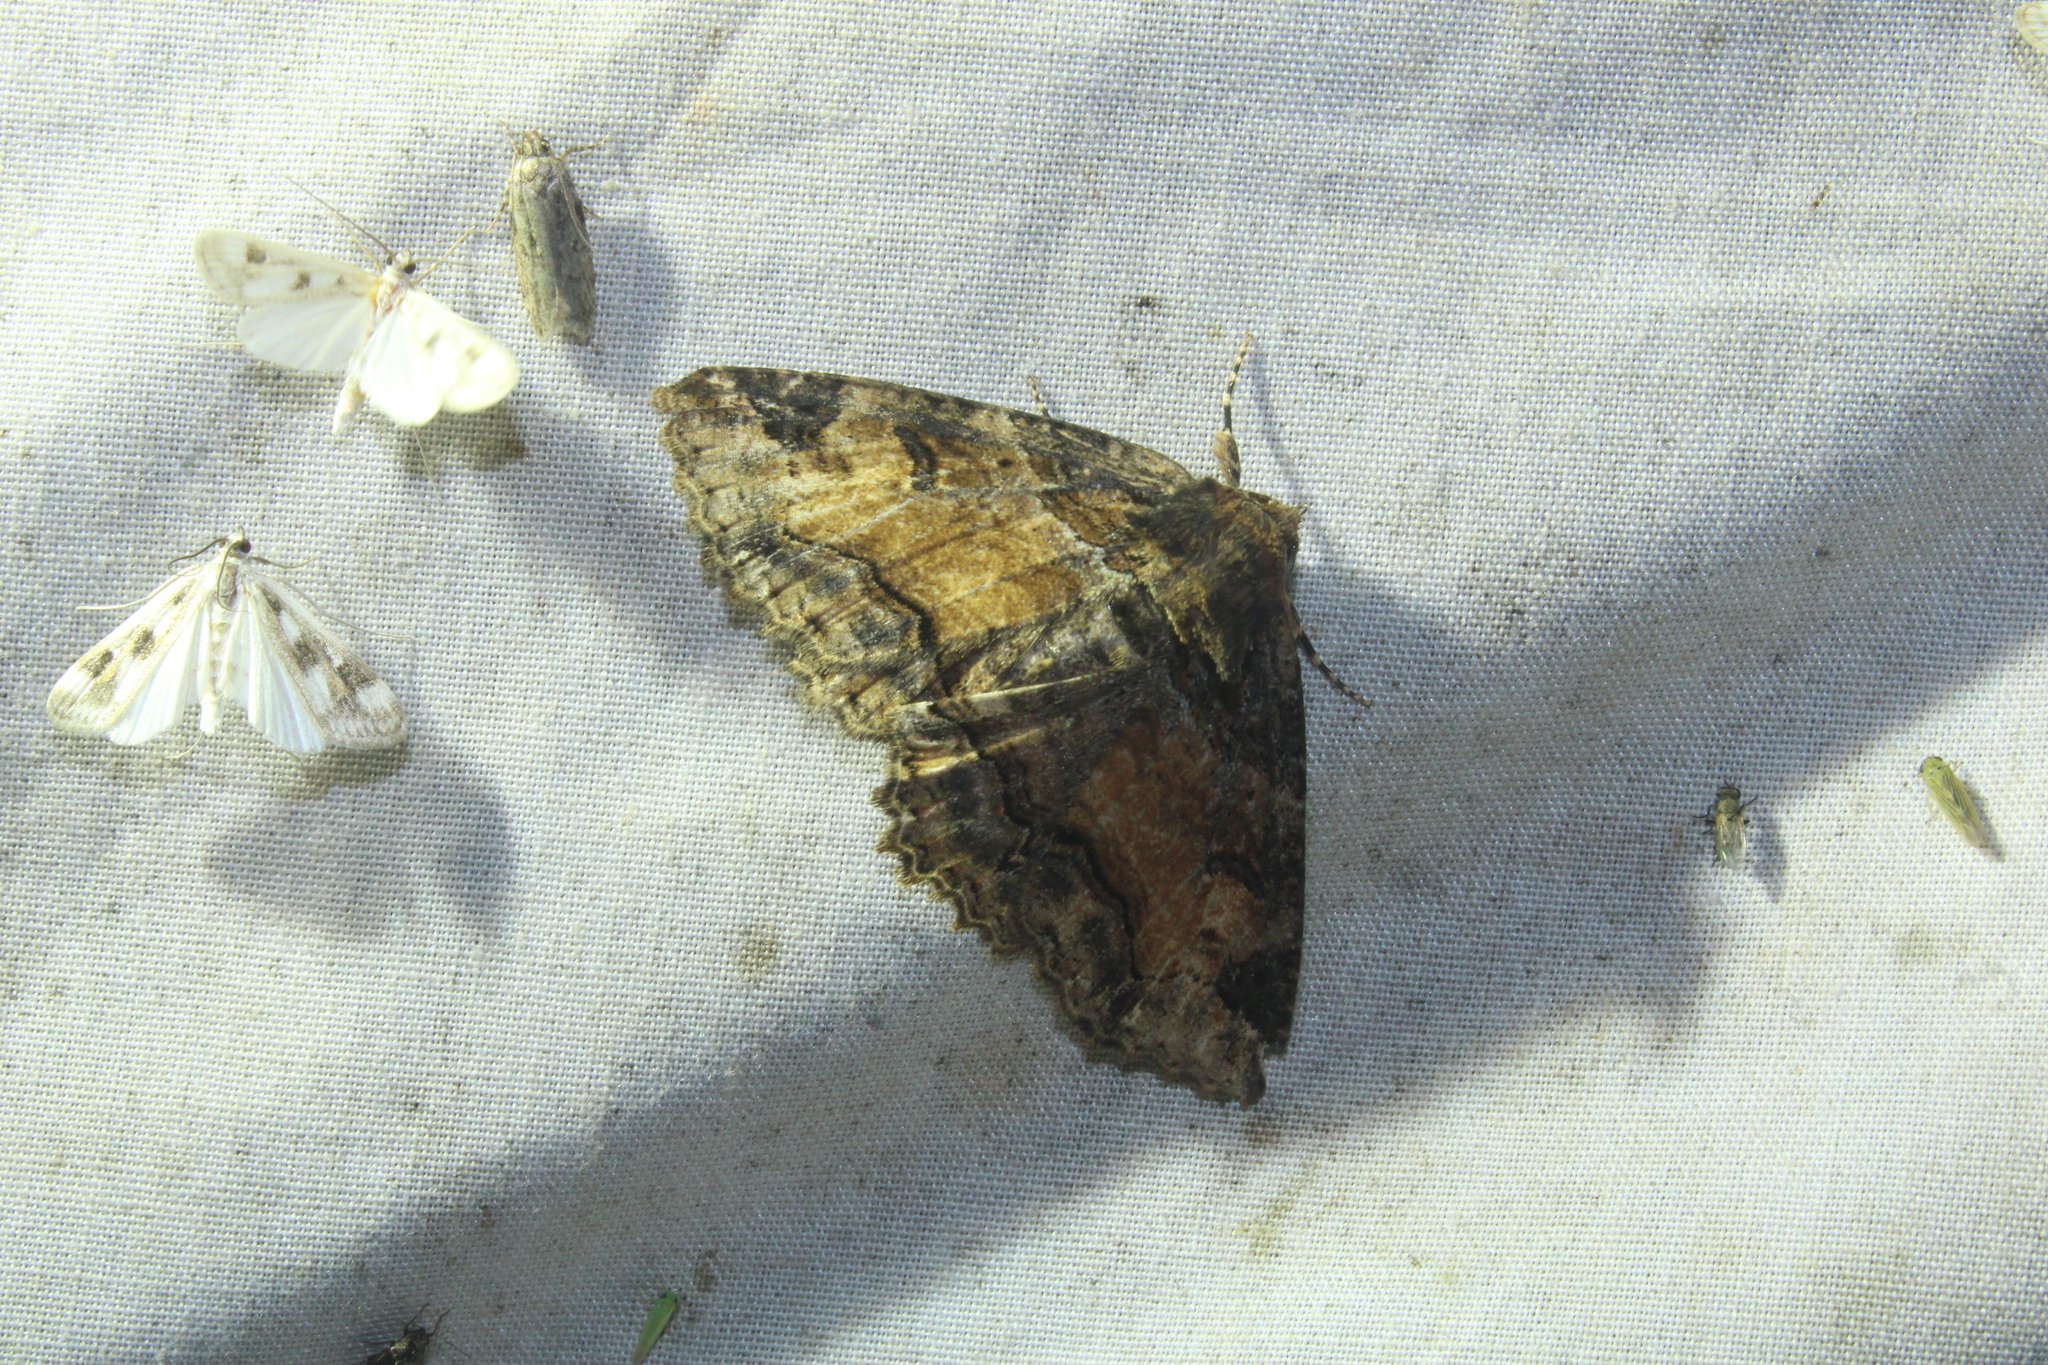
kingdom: Animalia
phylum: Arthropoda
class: Insecta
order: Lepidoptera
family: Erebidae
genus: Zale
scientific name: Zale minerea
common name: Colorful zale moth
